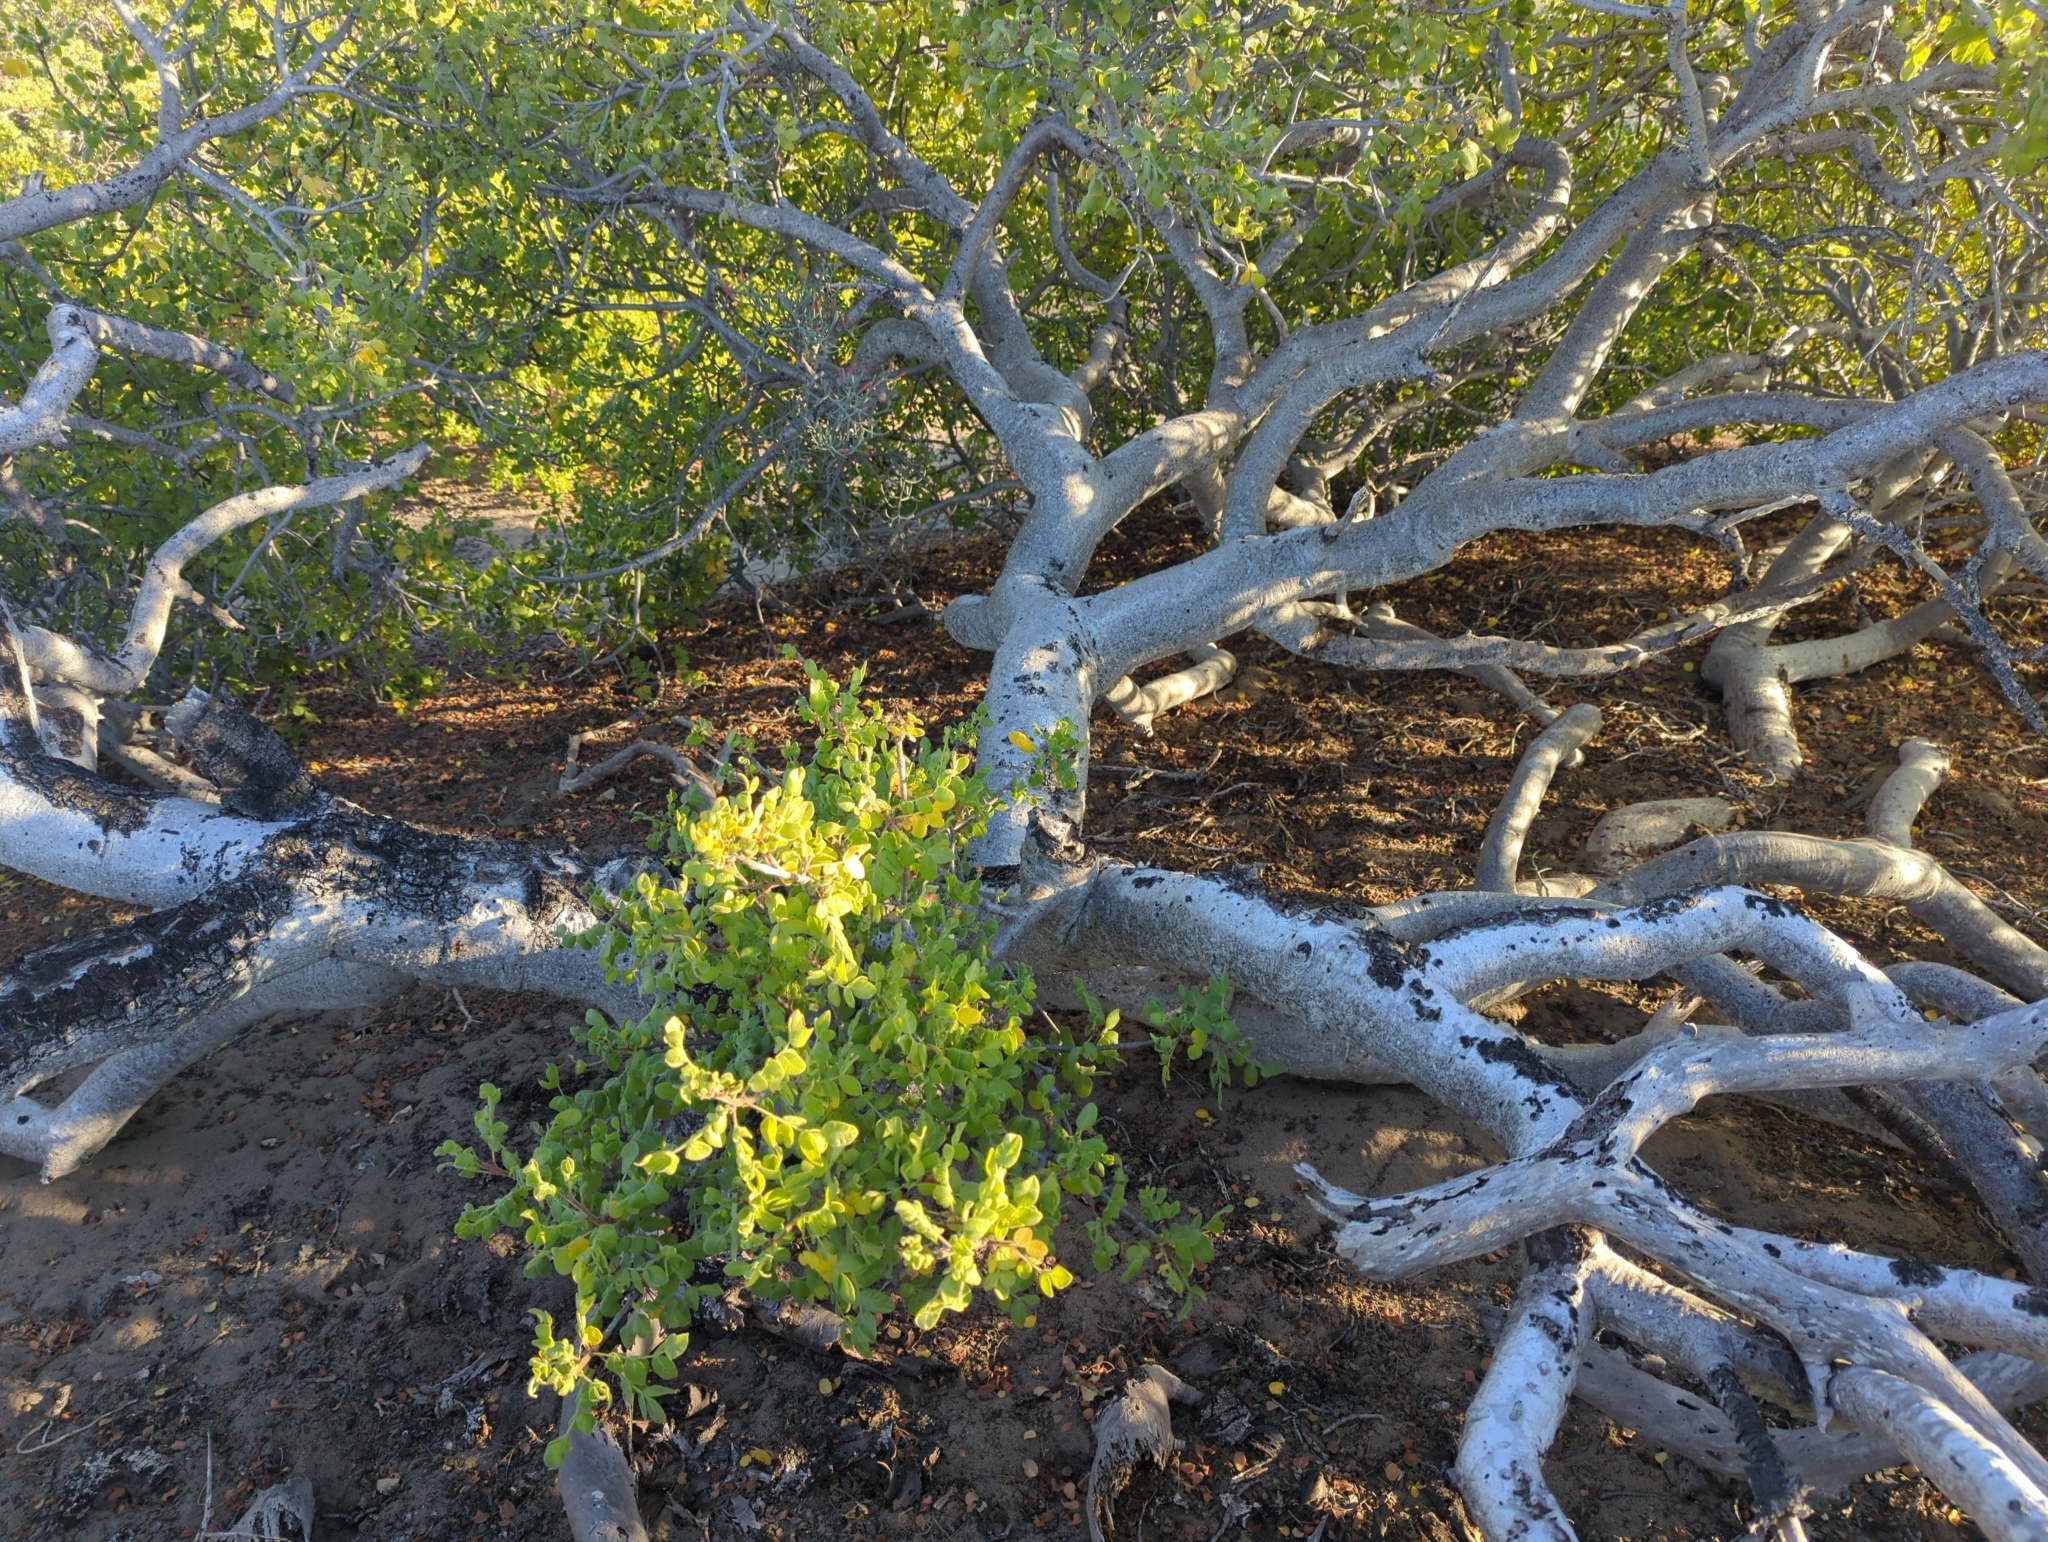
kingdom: Plantae
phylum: Tracheophyta
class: Magnoliopsida
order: Sapindales
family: Anacardiaceae
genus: Cyrtocarpa
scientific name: Cyrtocarpa edulis
